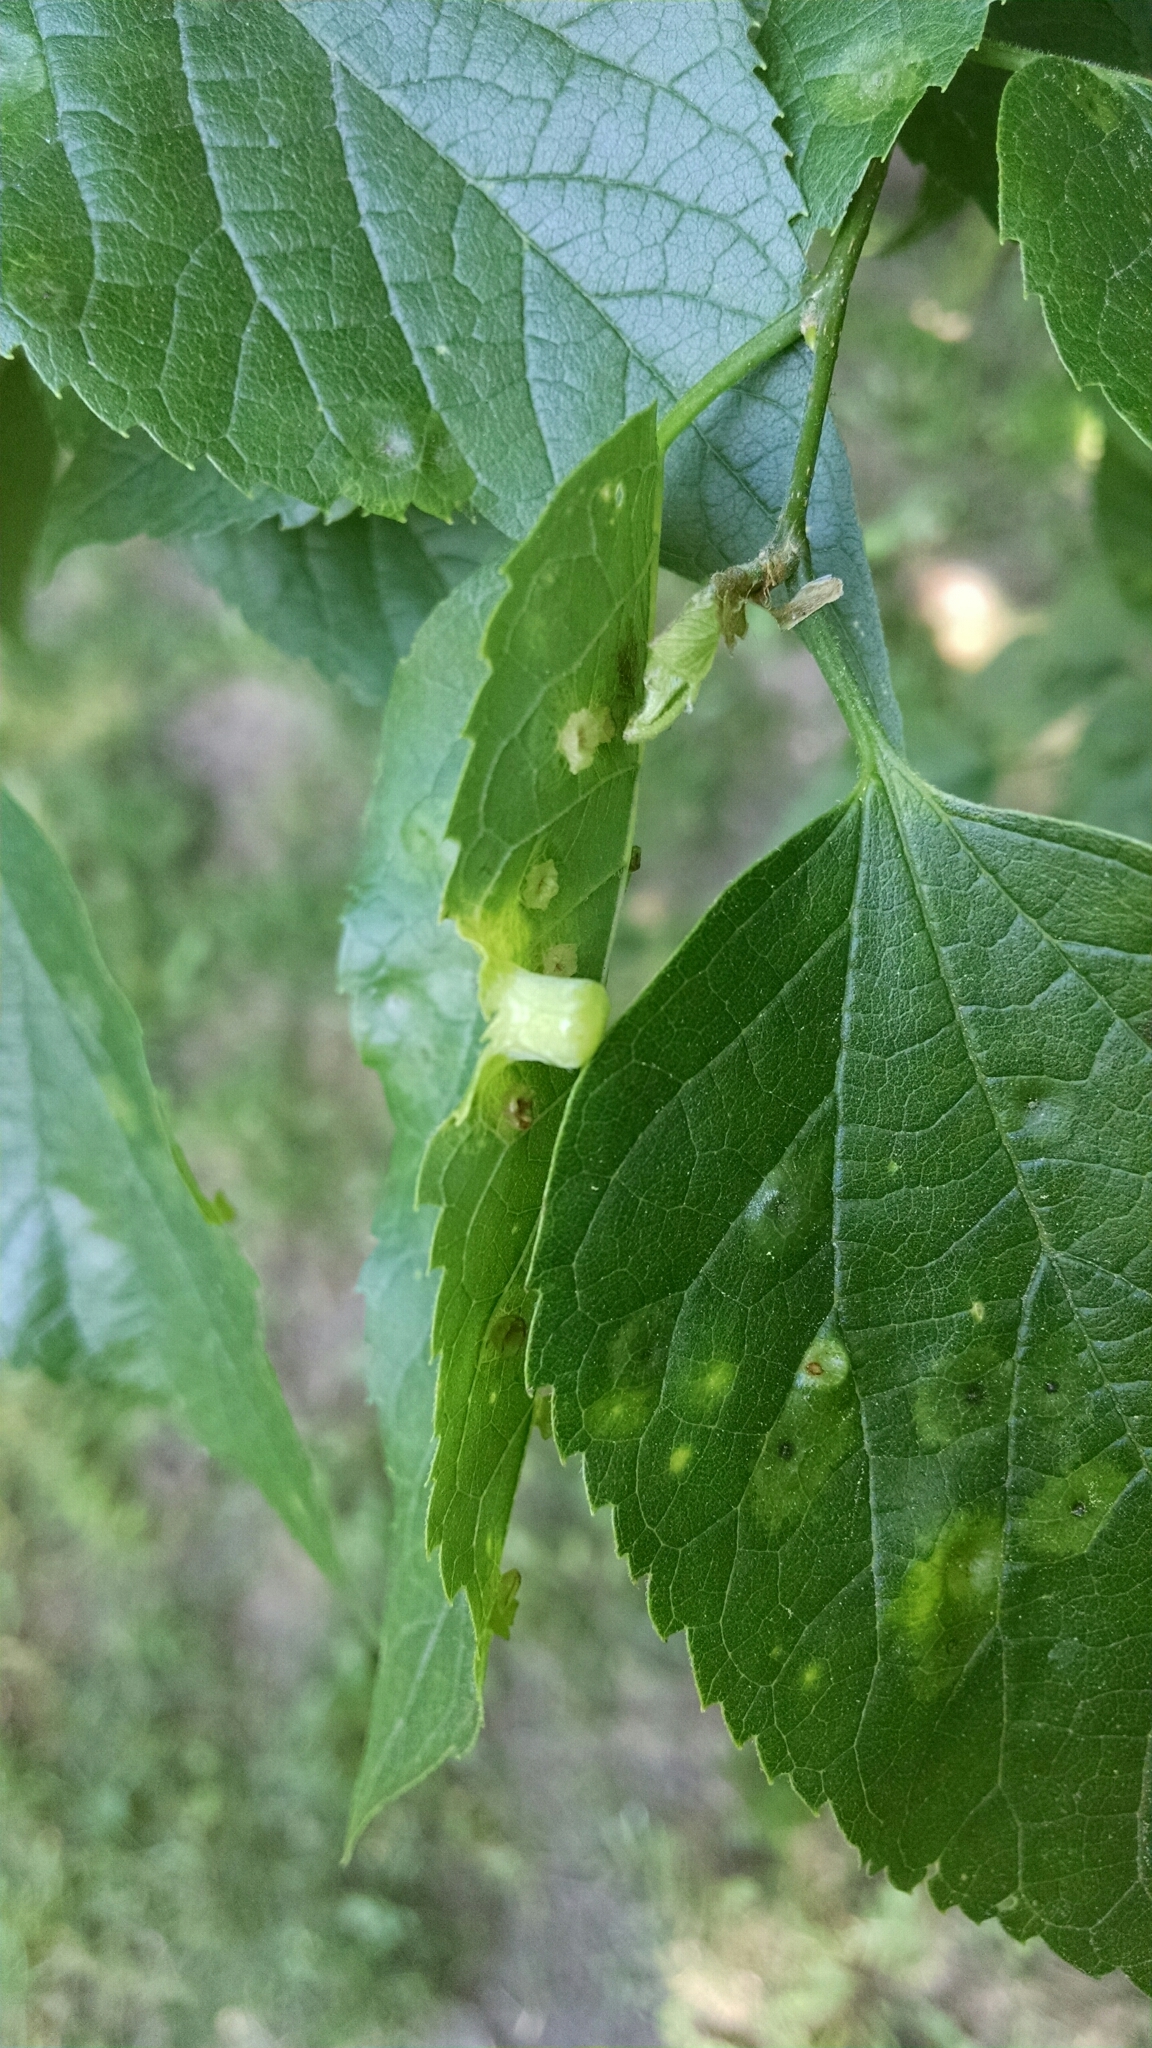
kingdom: Animalia
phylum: Arthropoda
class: Insecta
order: Hemiptera
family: Aphalaridae
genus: Pachypsylla
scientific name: Pachypsylla celtidismamma
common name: Hackberry nipplegall psyllid
